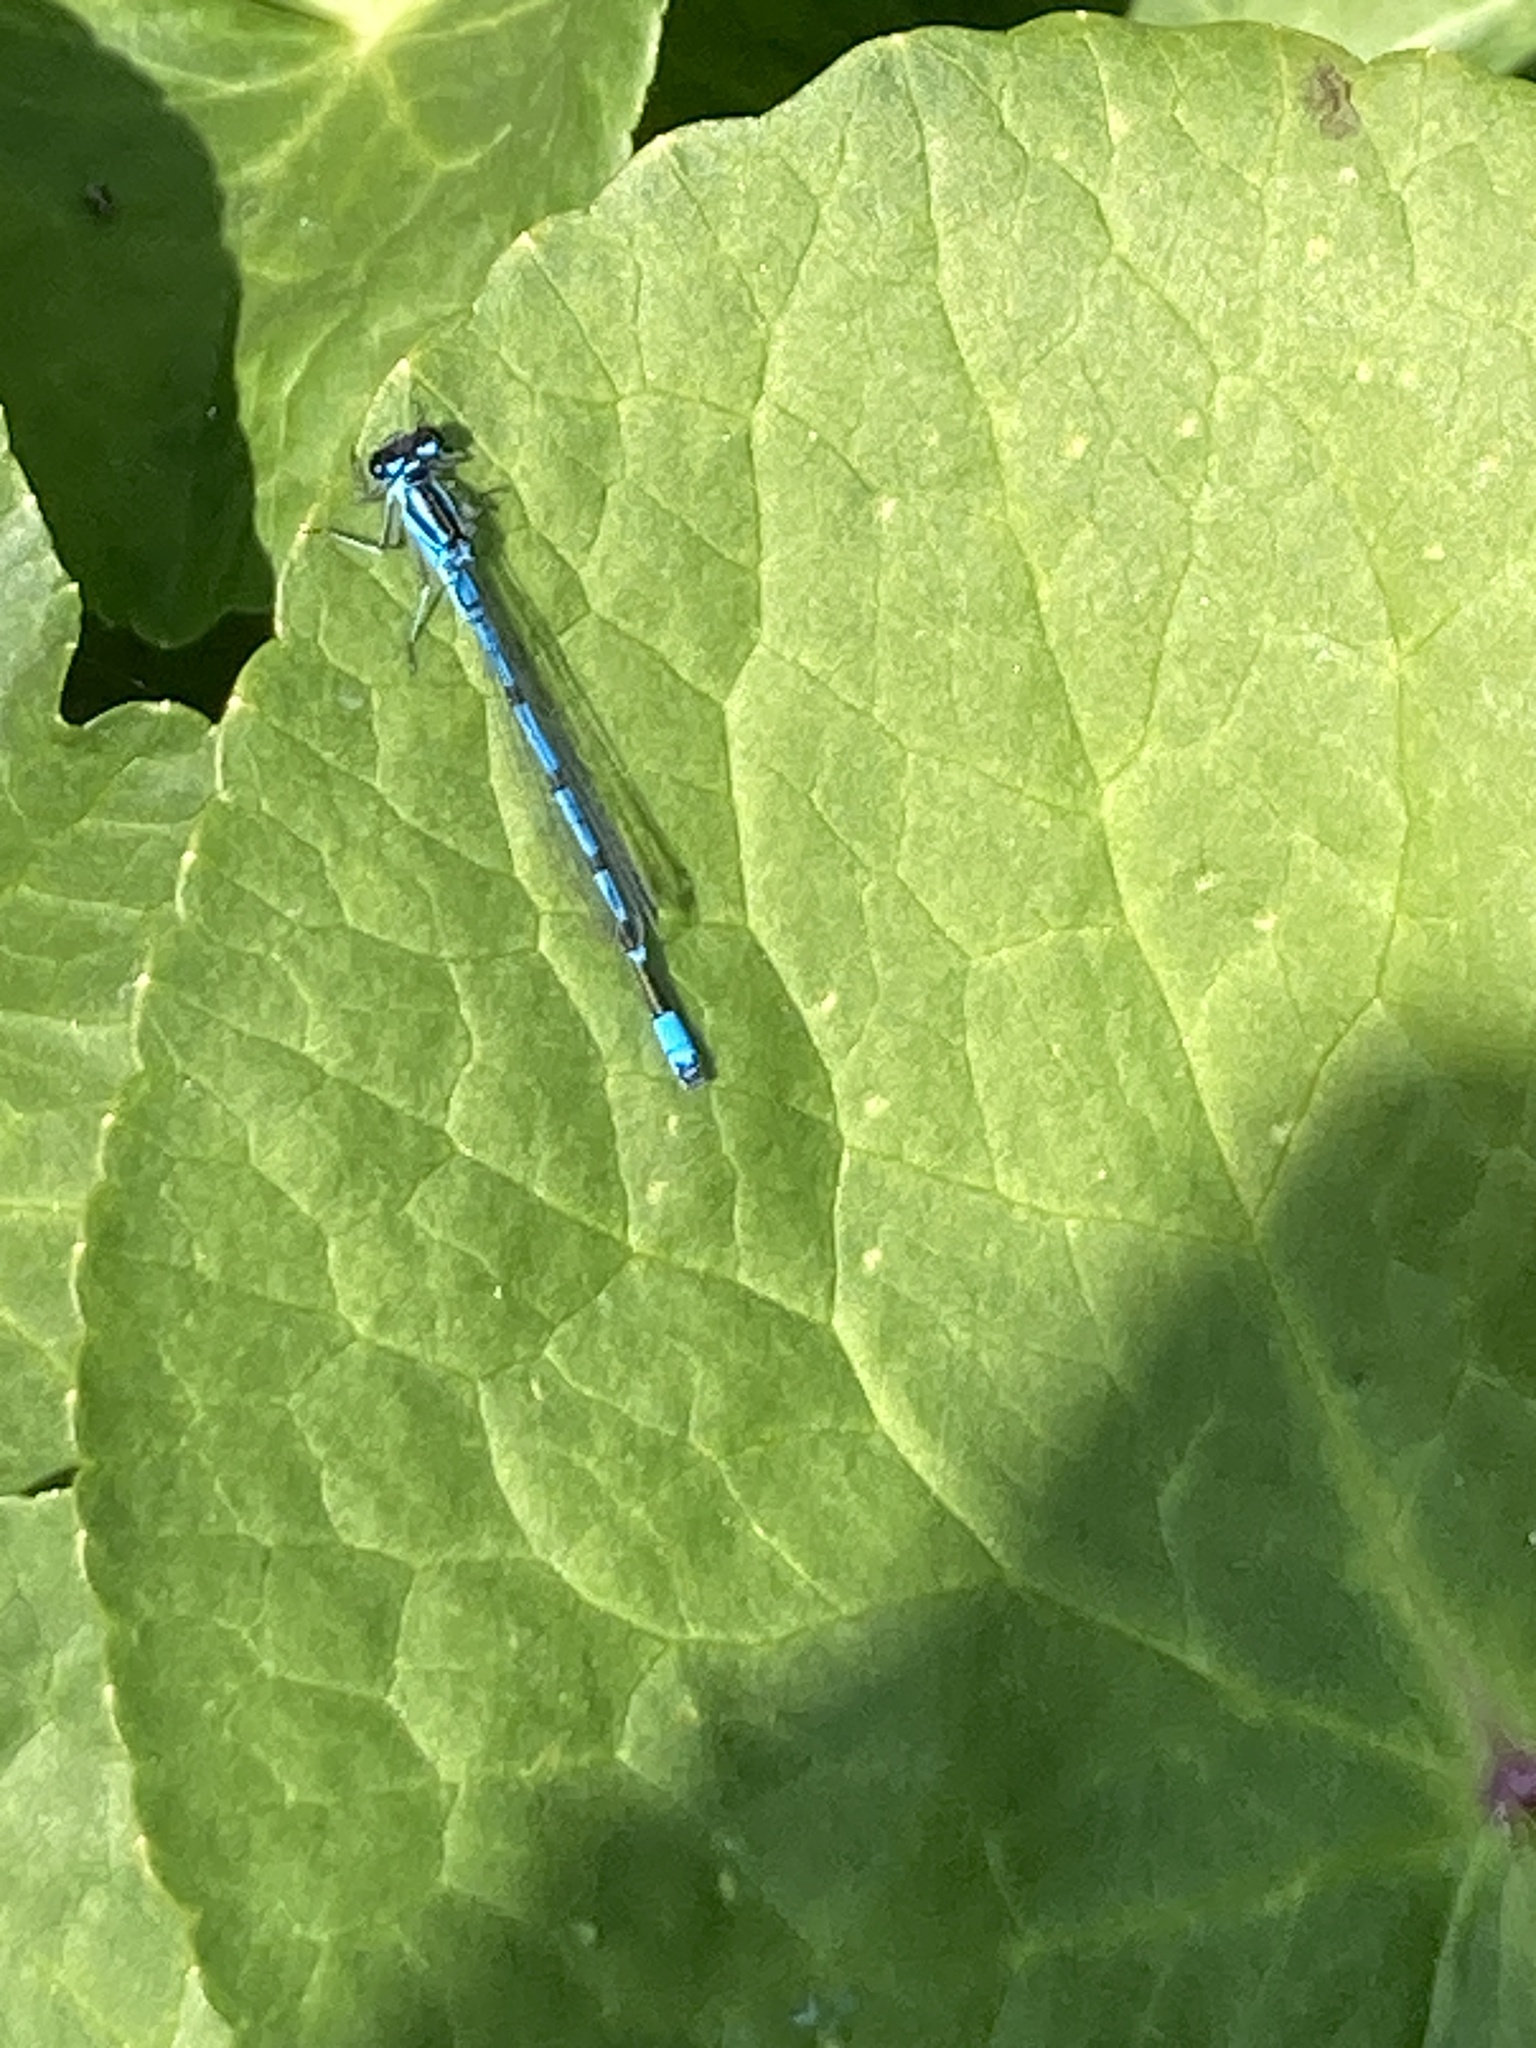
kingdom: Animalia
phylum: Arthropoda
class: Insecta
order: Odonata
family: Coenagrionidae
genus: Coenagrion
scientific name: Coenagrion puella
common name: Azure damselfly
